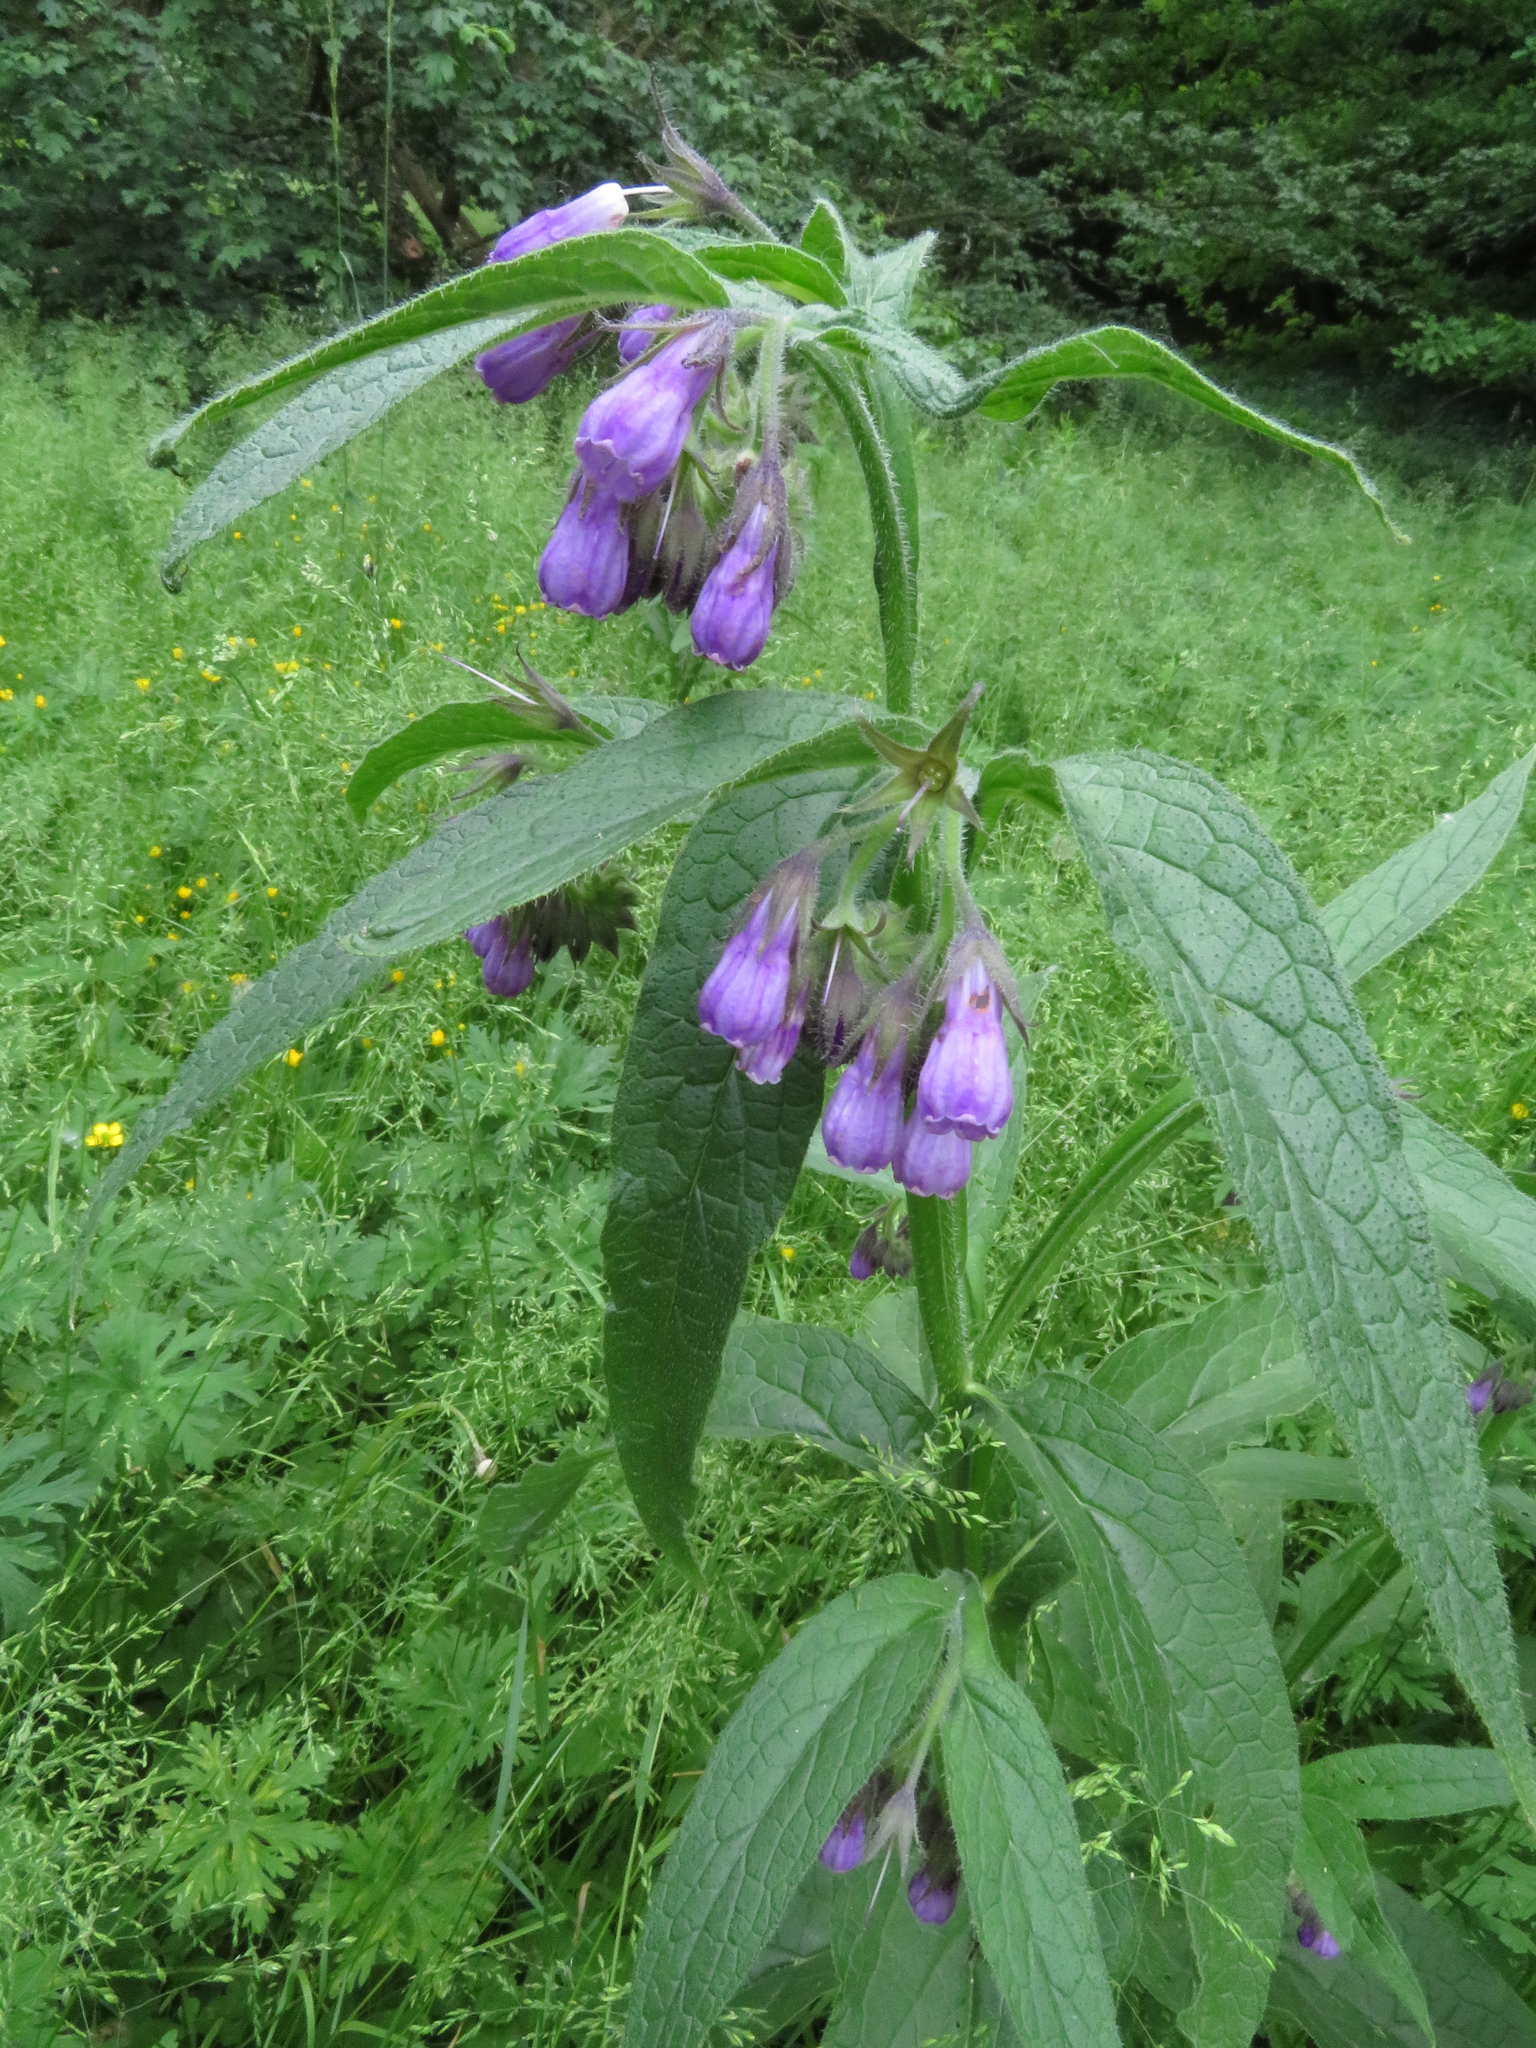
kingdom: Plantae
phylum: Tracheophyta
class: Magnoliopsida
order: Boraginales
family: Boraginaceae
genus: Symphytum
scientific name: Symphytum officinale
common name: Common comfrey
